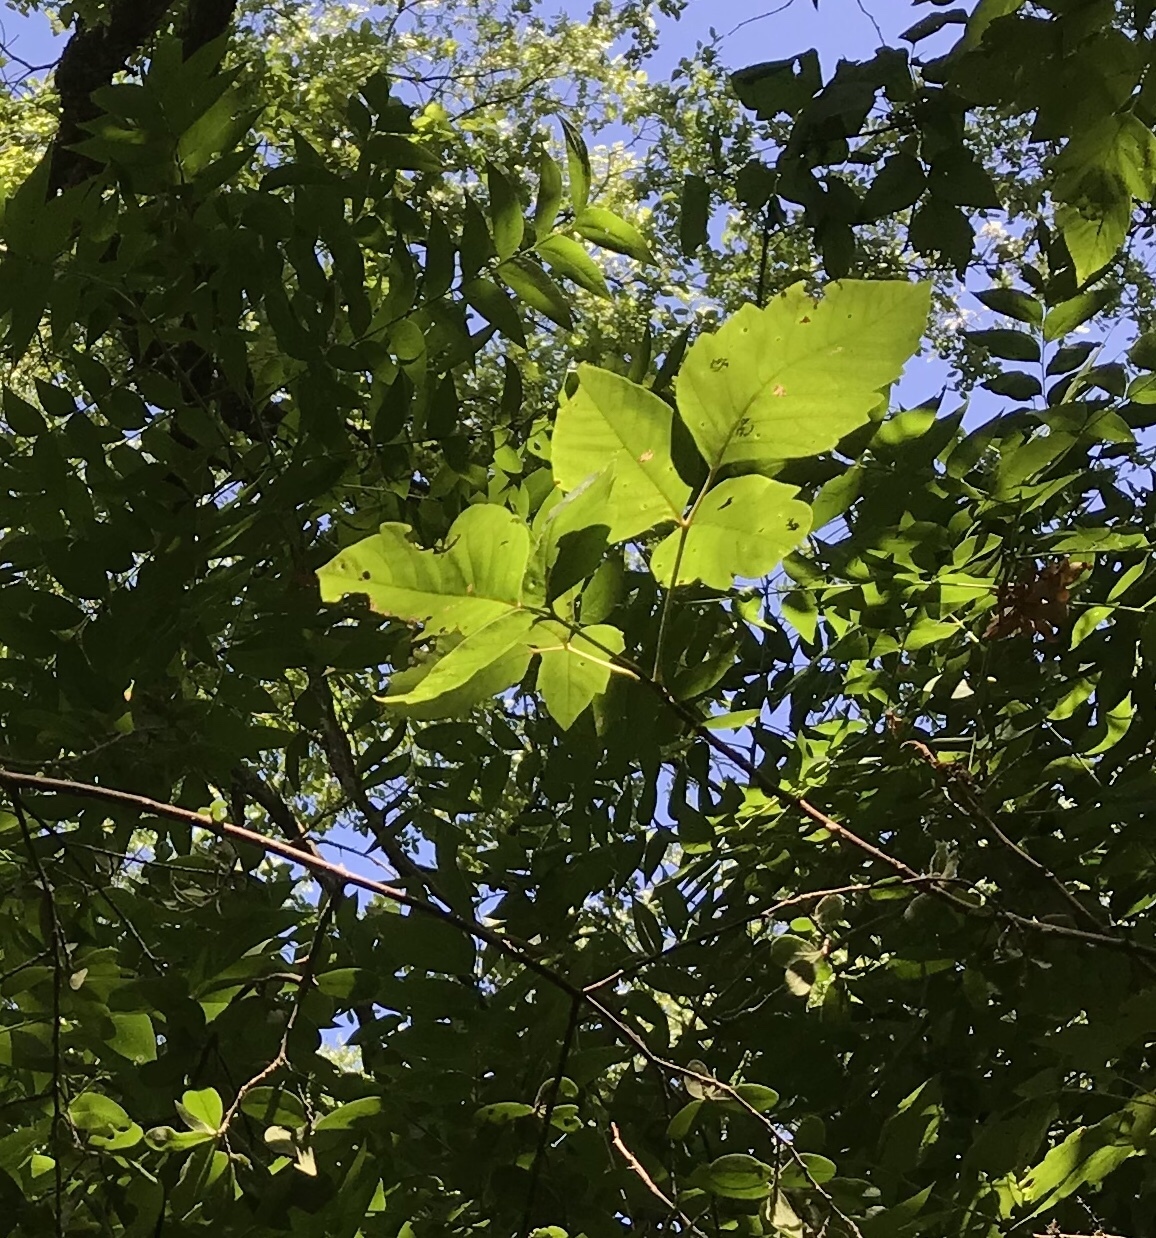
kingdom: Plantae
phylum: Tracheophyta
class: Magnoliopsida
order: Sapindales
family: Anacardiaceae
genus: Toxicodendron
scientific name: Toxicodendron radicans
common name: Poison ivy
